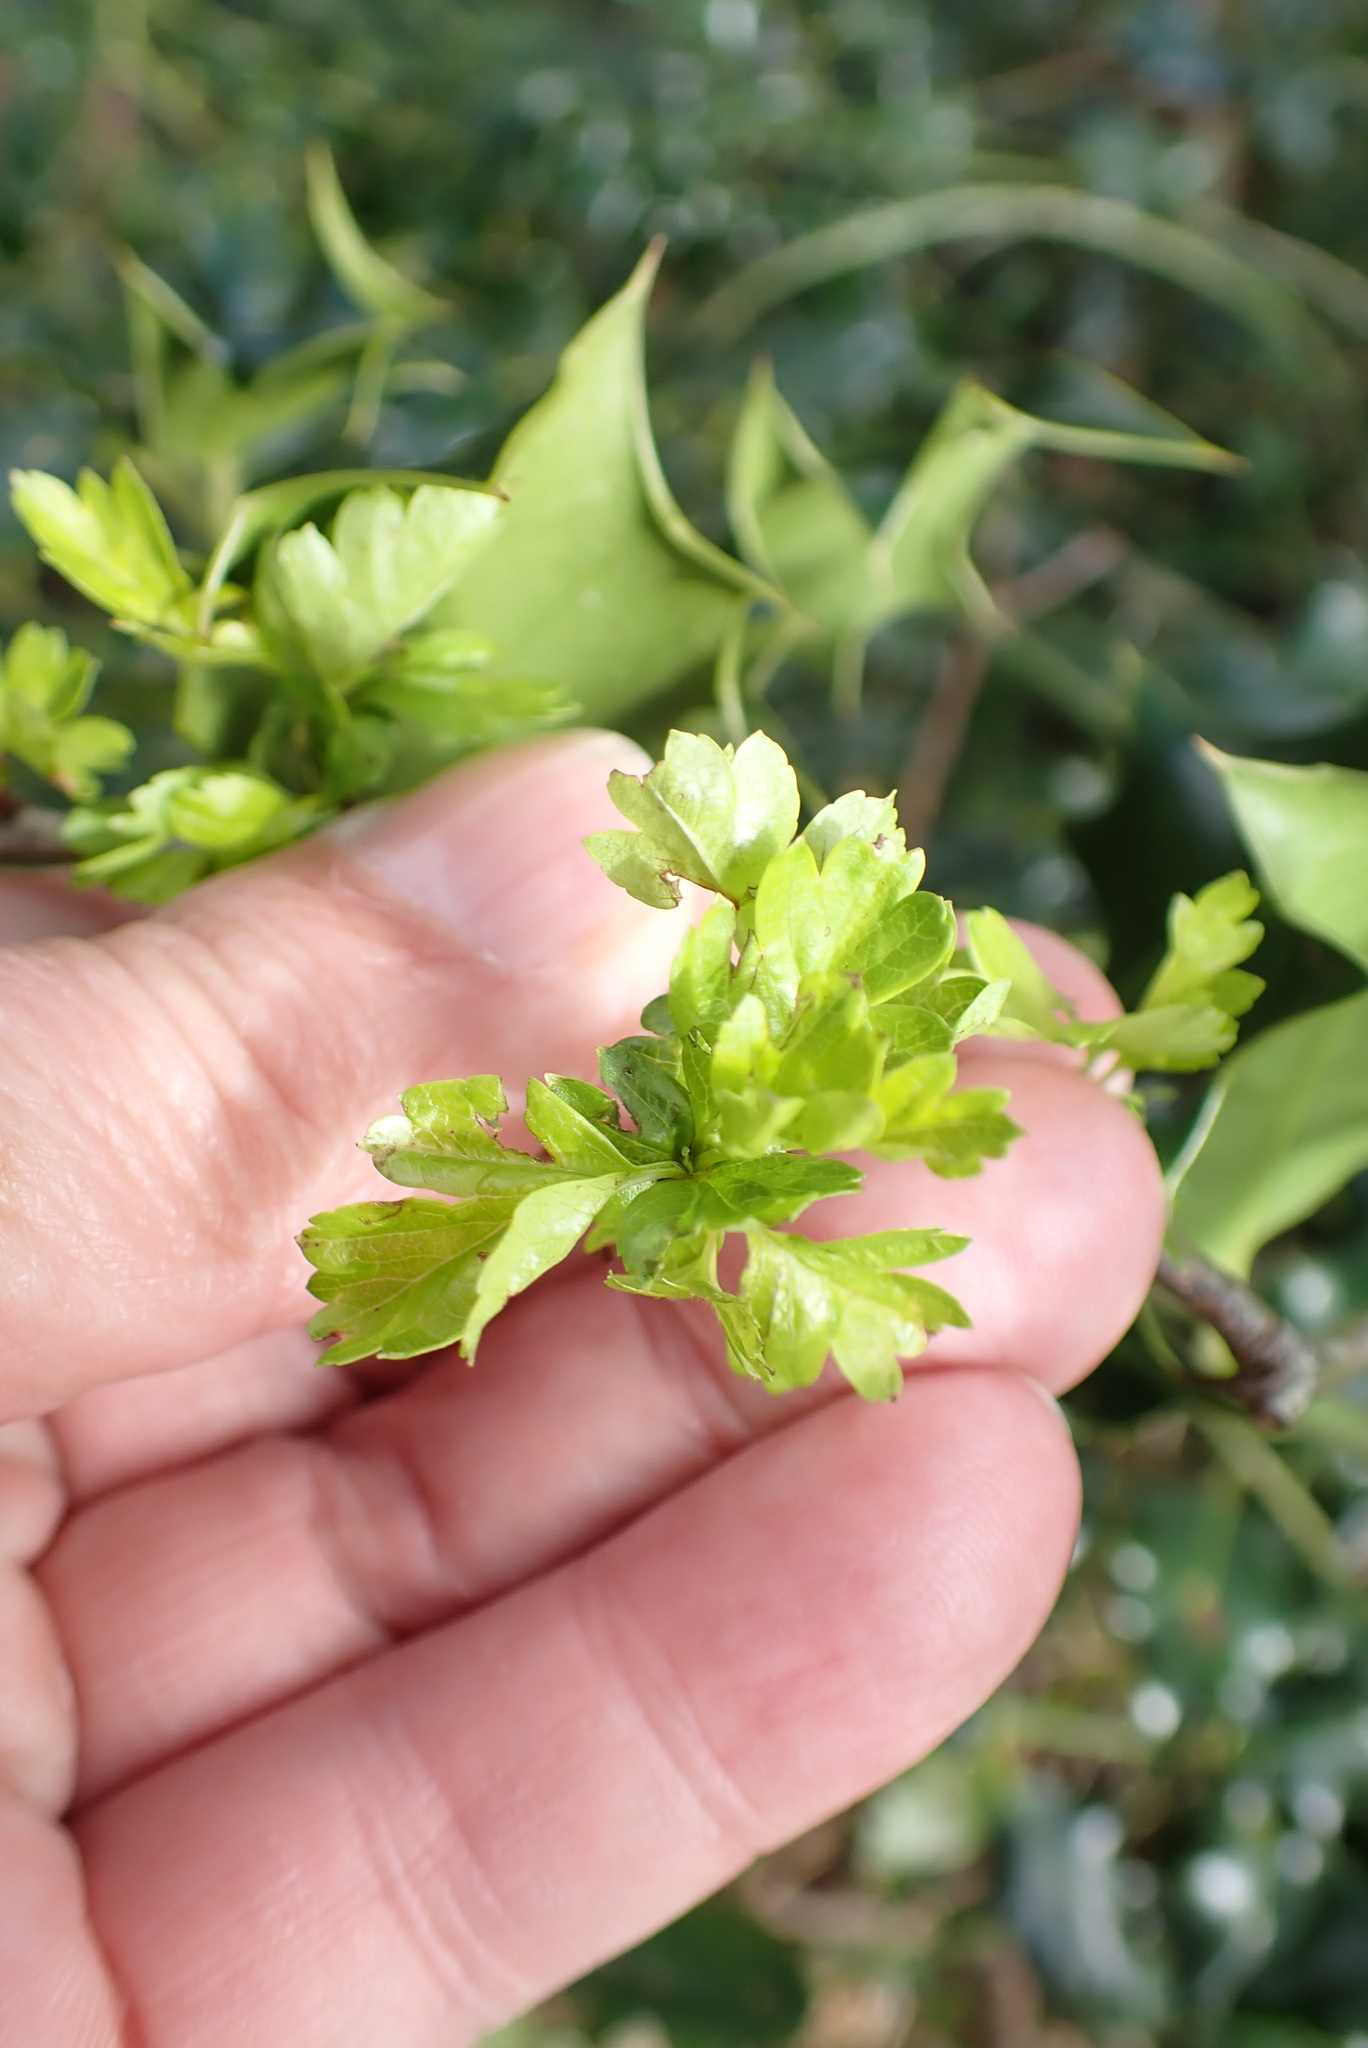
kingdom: Plantae
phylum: Tracheophyta
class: Magnoliopsida
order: Rosales
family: Rosaceae
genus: Crataegus
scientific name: Crataegus monogyna
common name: Hawthorn
